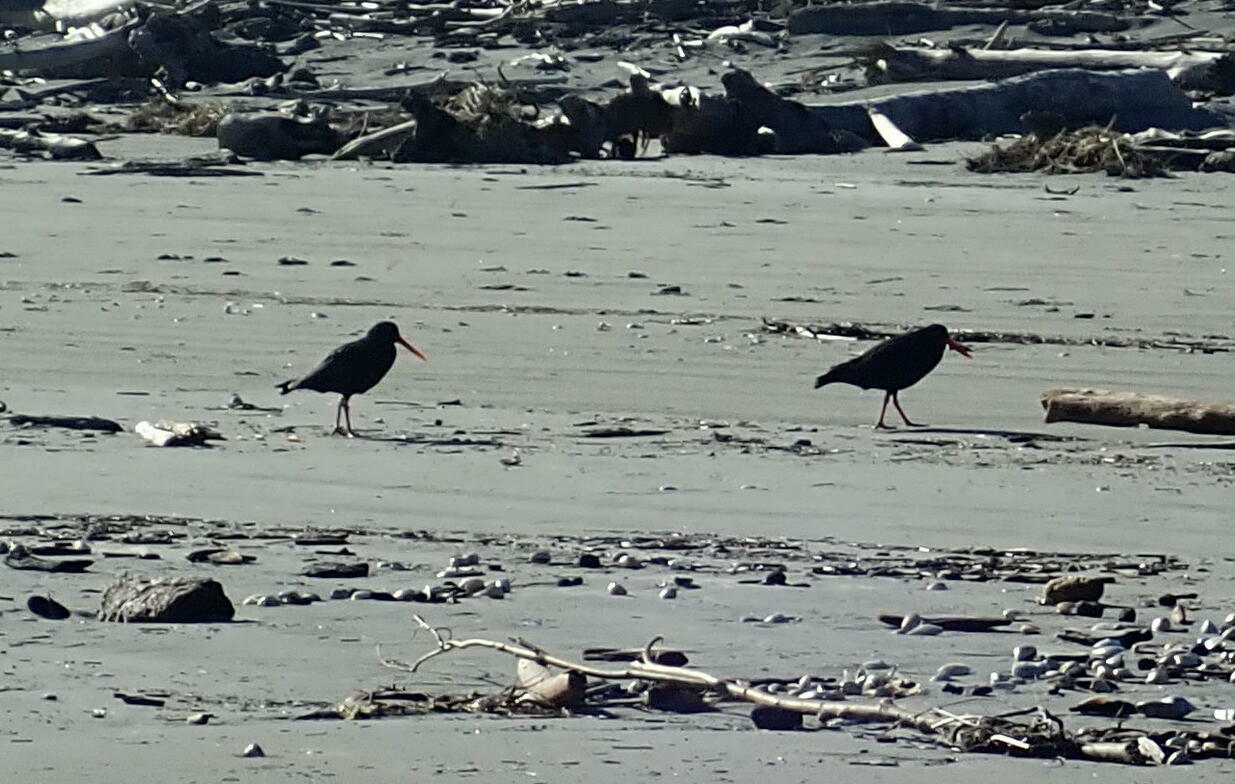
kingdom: Animalia
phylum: Chordata
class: Aves
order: Charadriiformes
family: Haematopodidae
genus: Haematopus
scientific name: Haematopus unicolor
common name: Variable oystercatcher
